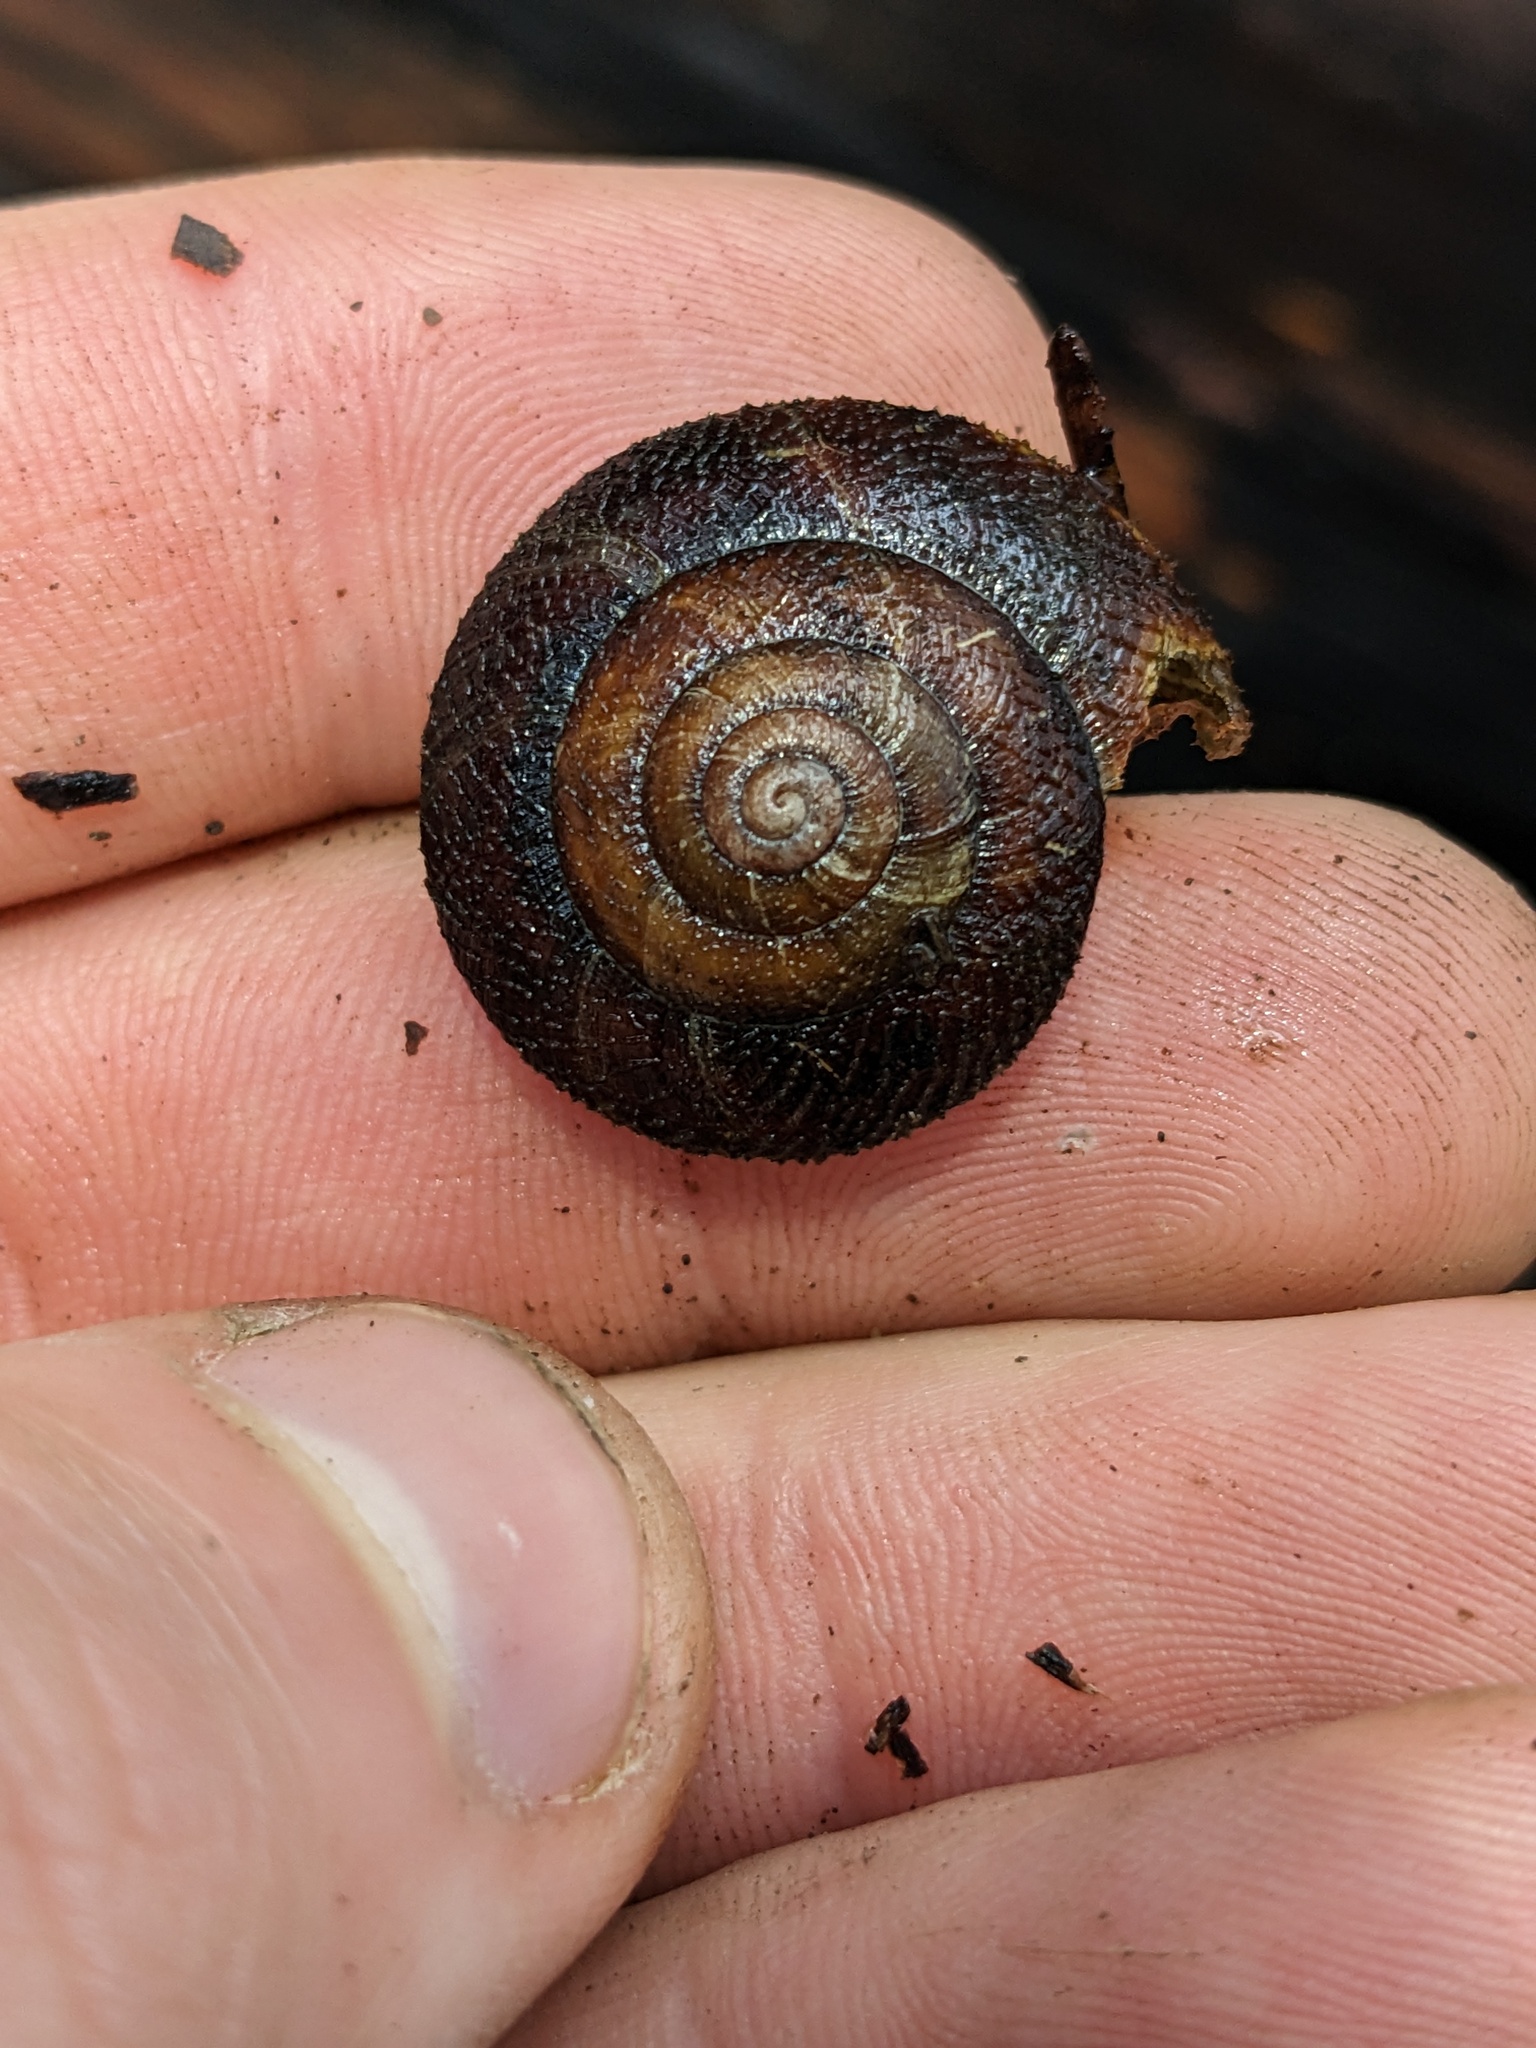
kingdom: Animalia
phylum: Mollusca
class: Gastropoda
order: Stylommatophora
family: Xanthonychidae
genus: Monadenia
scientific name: Monadenia infumata
